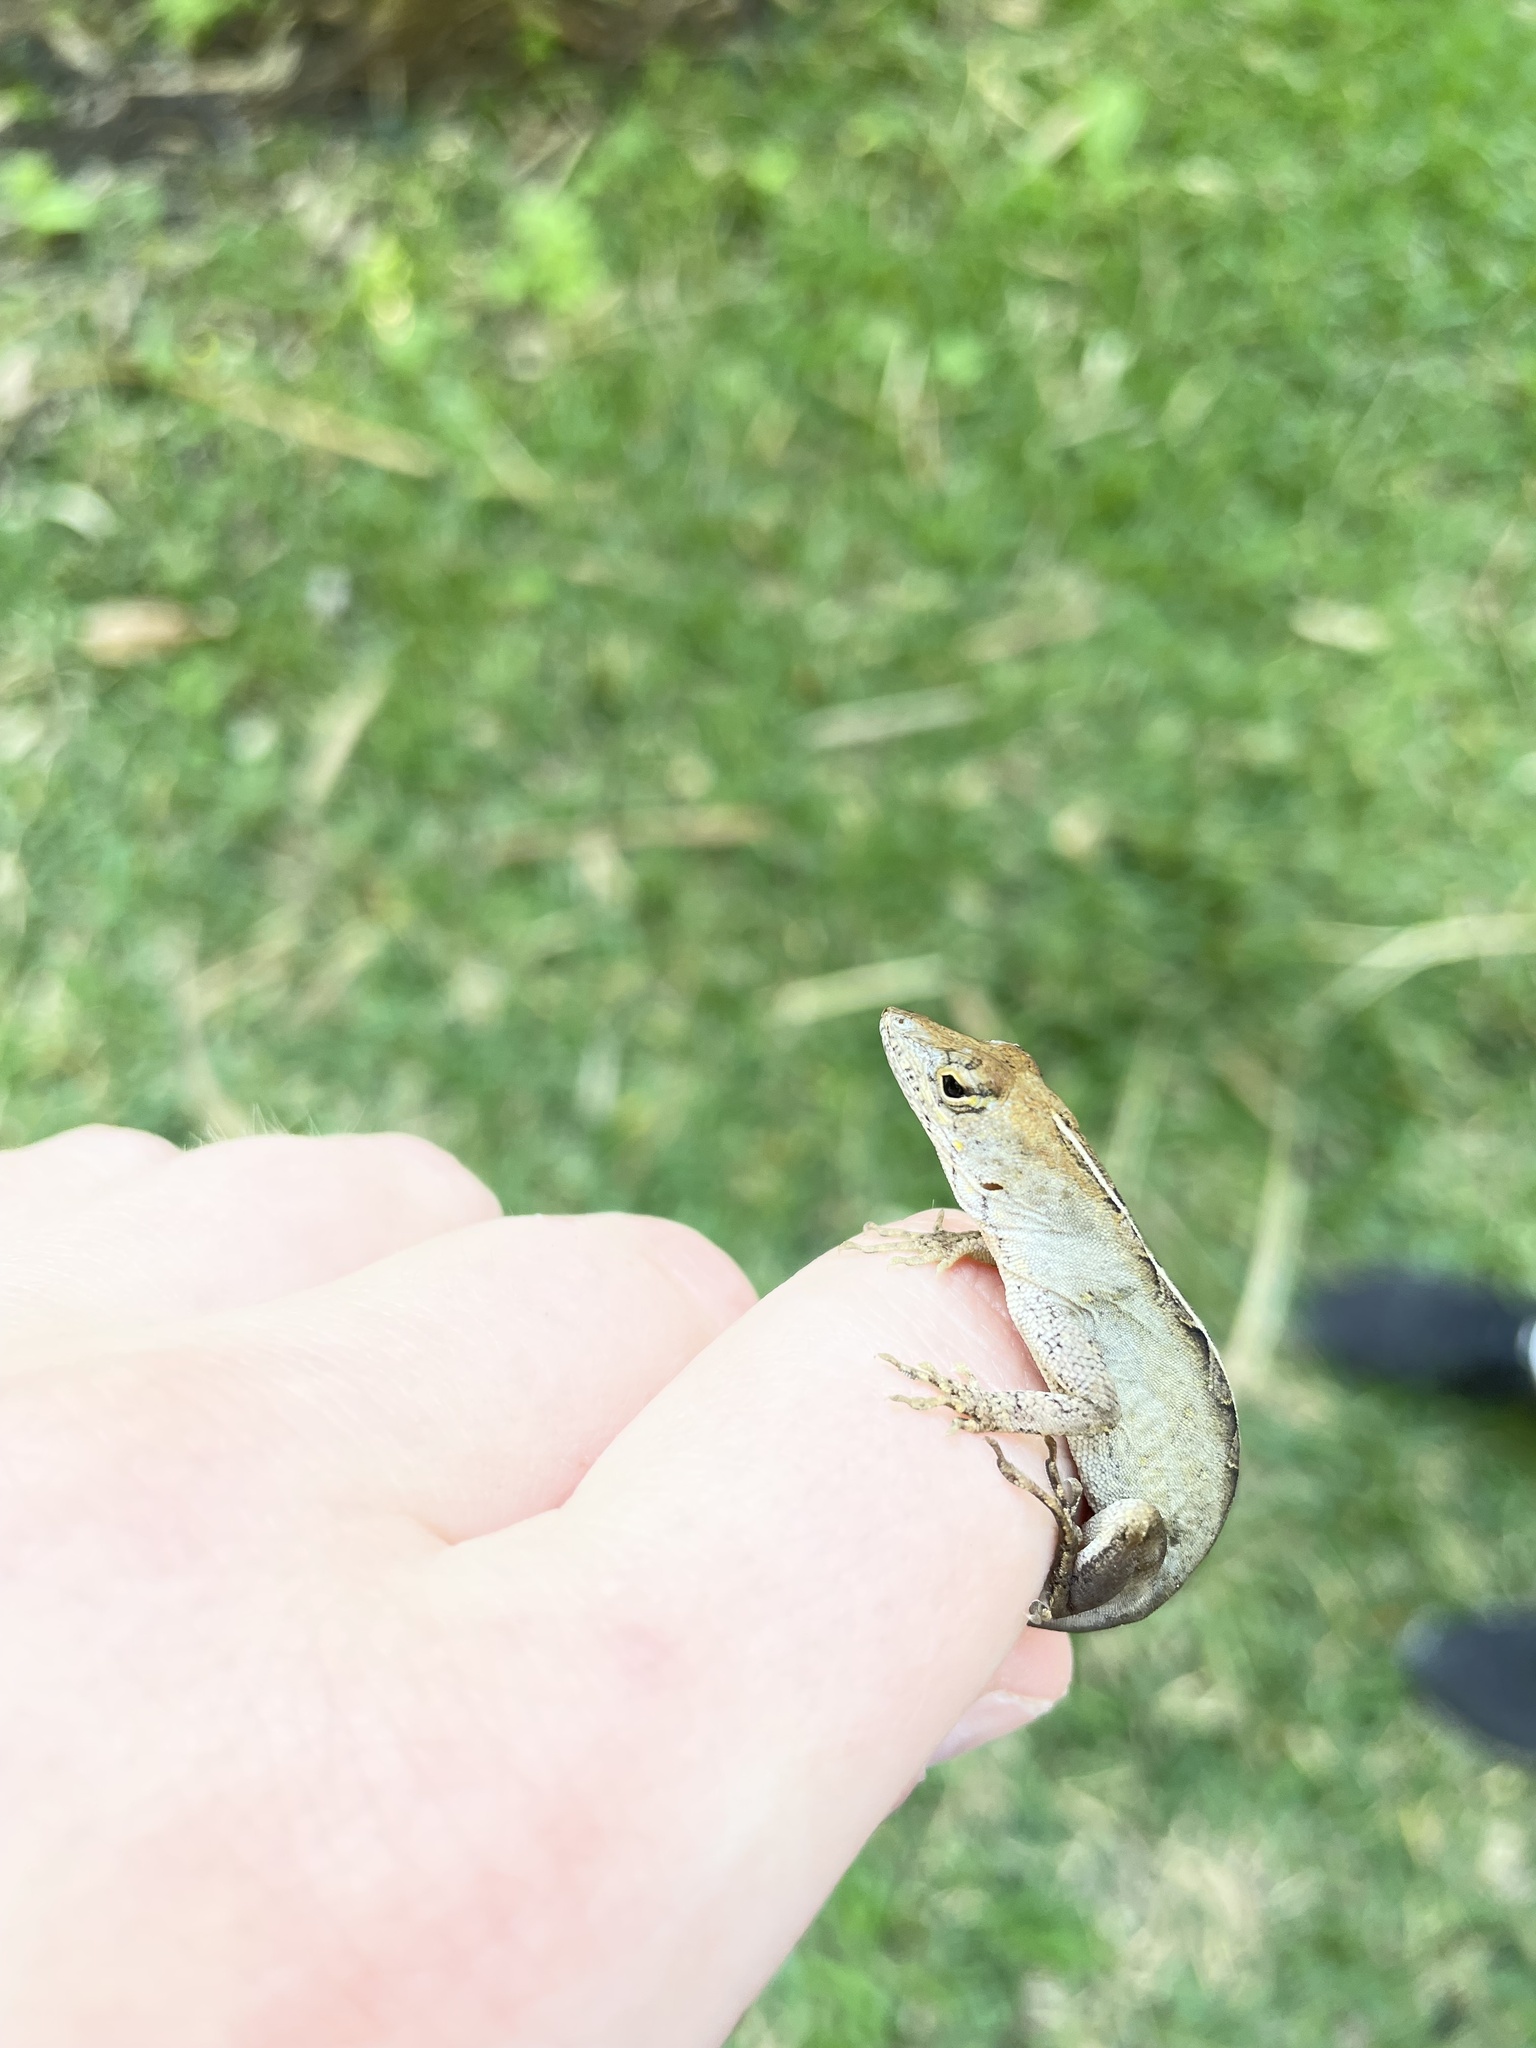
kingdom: Animalia
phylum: Chordata
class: Squamata
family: Dactyloidae
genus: Anolis
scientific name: Anolis sagrei
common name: Brown anole
